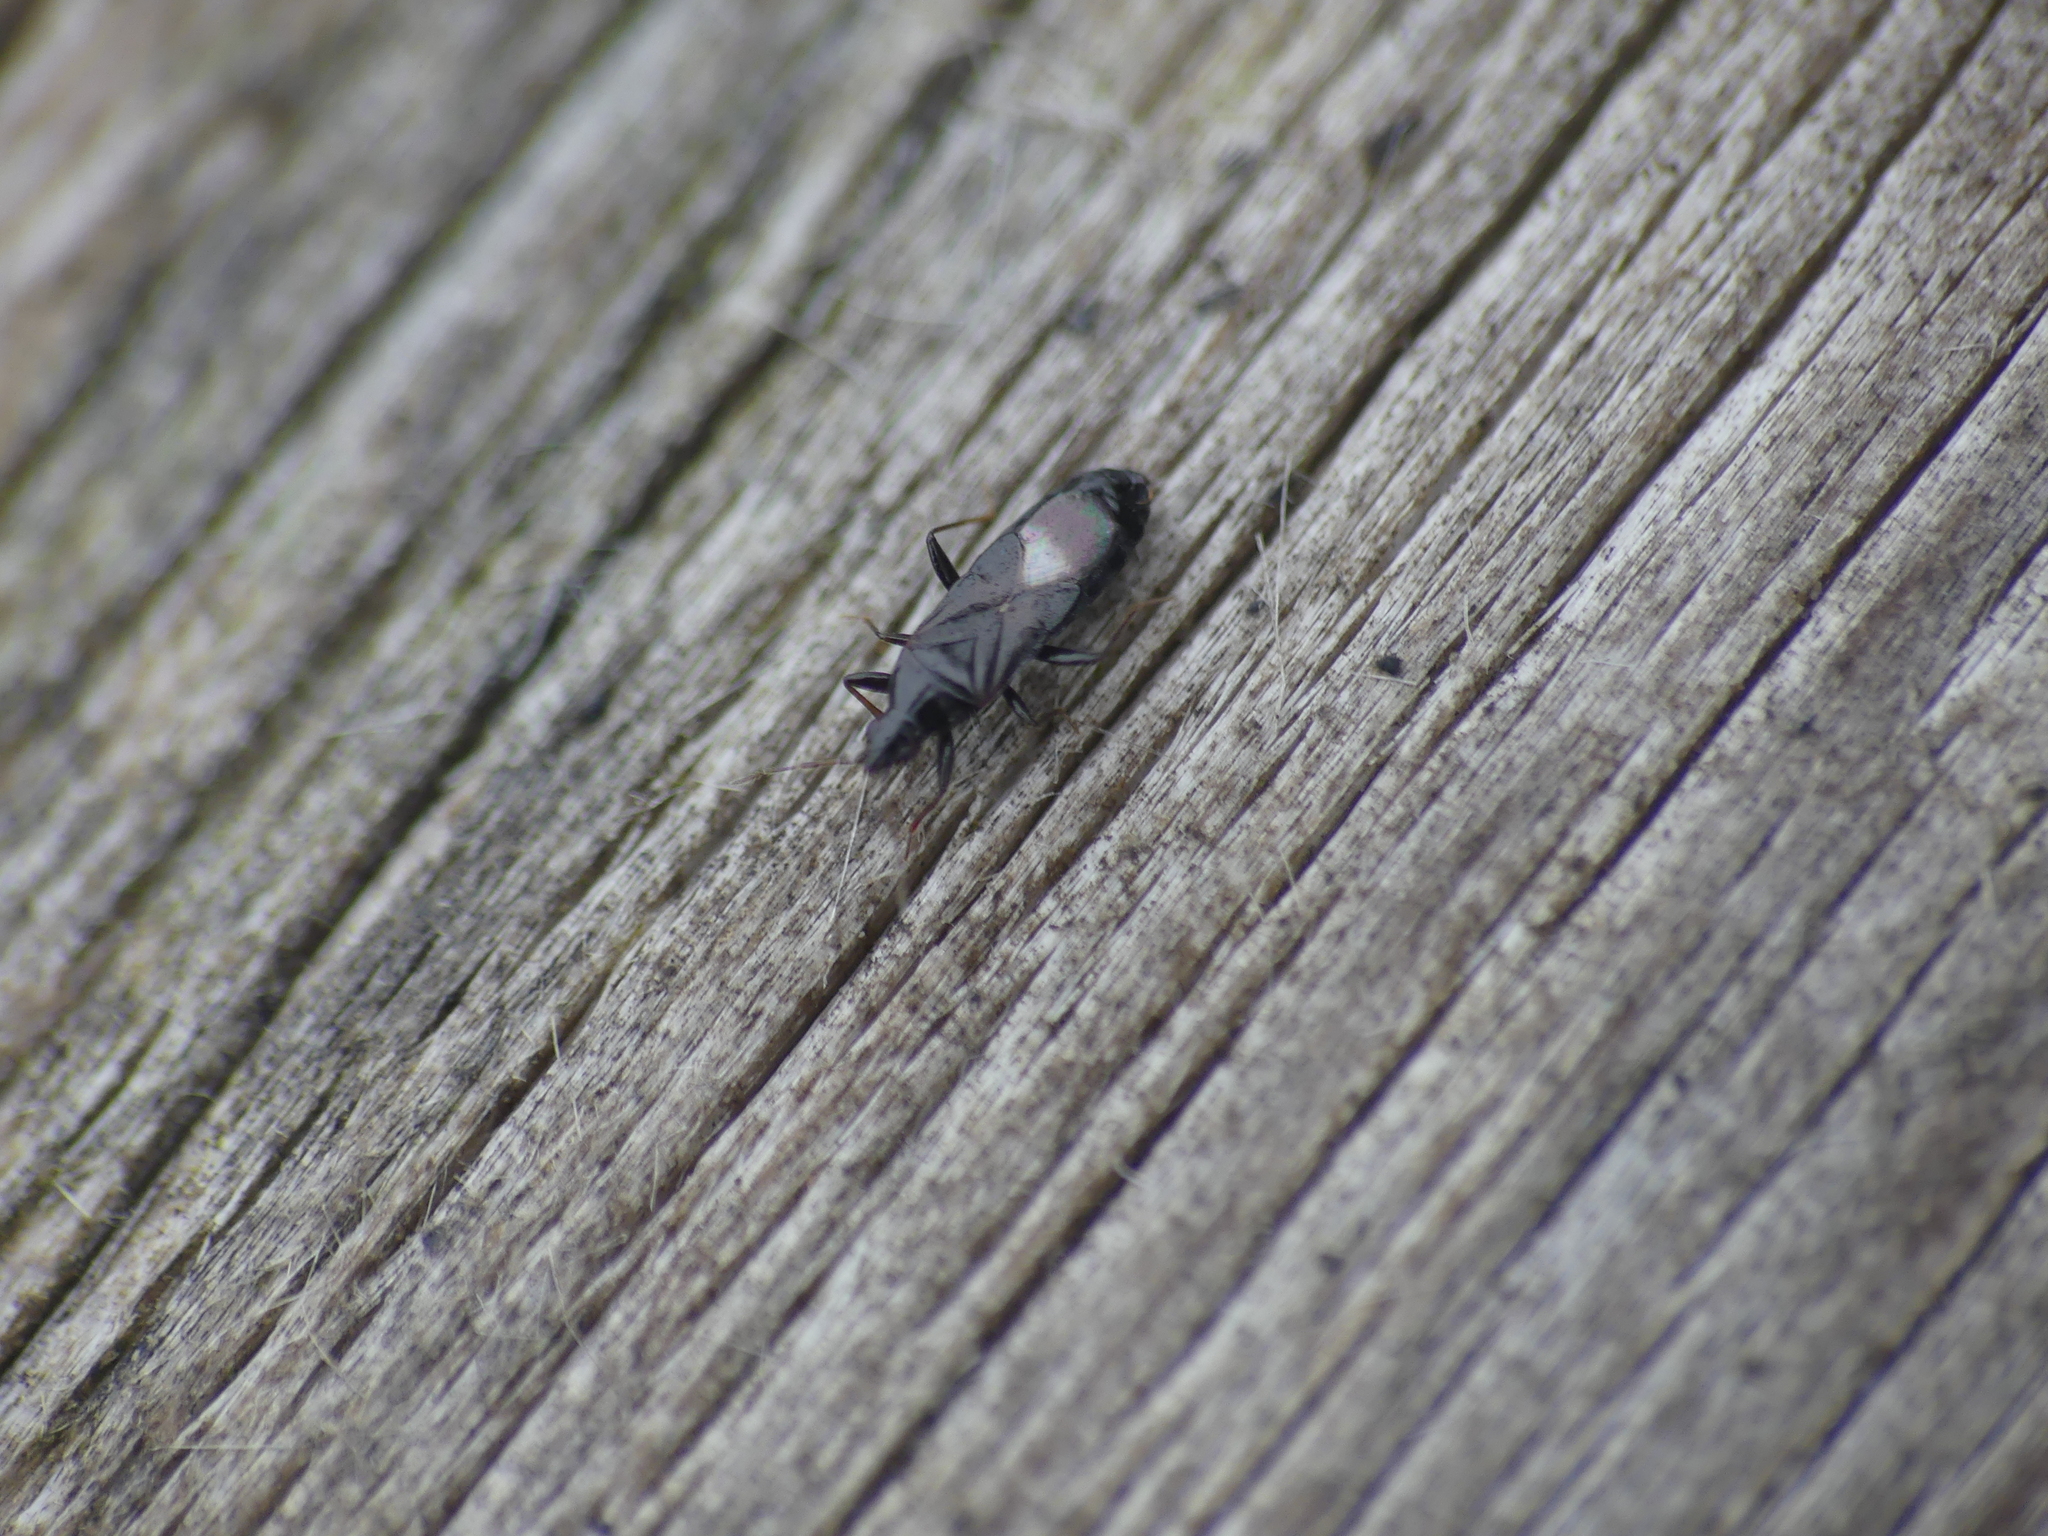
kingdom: Animalia
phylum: Arthropoda
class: Insecta
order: Hemiptera
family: Anthocoridae
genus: Dufouriellus
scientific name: Dufouriellus ater
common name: Minute pirate bug
